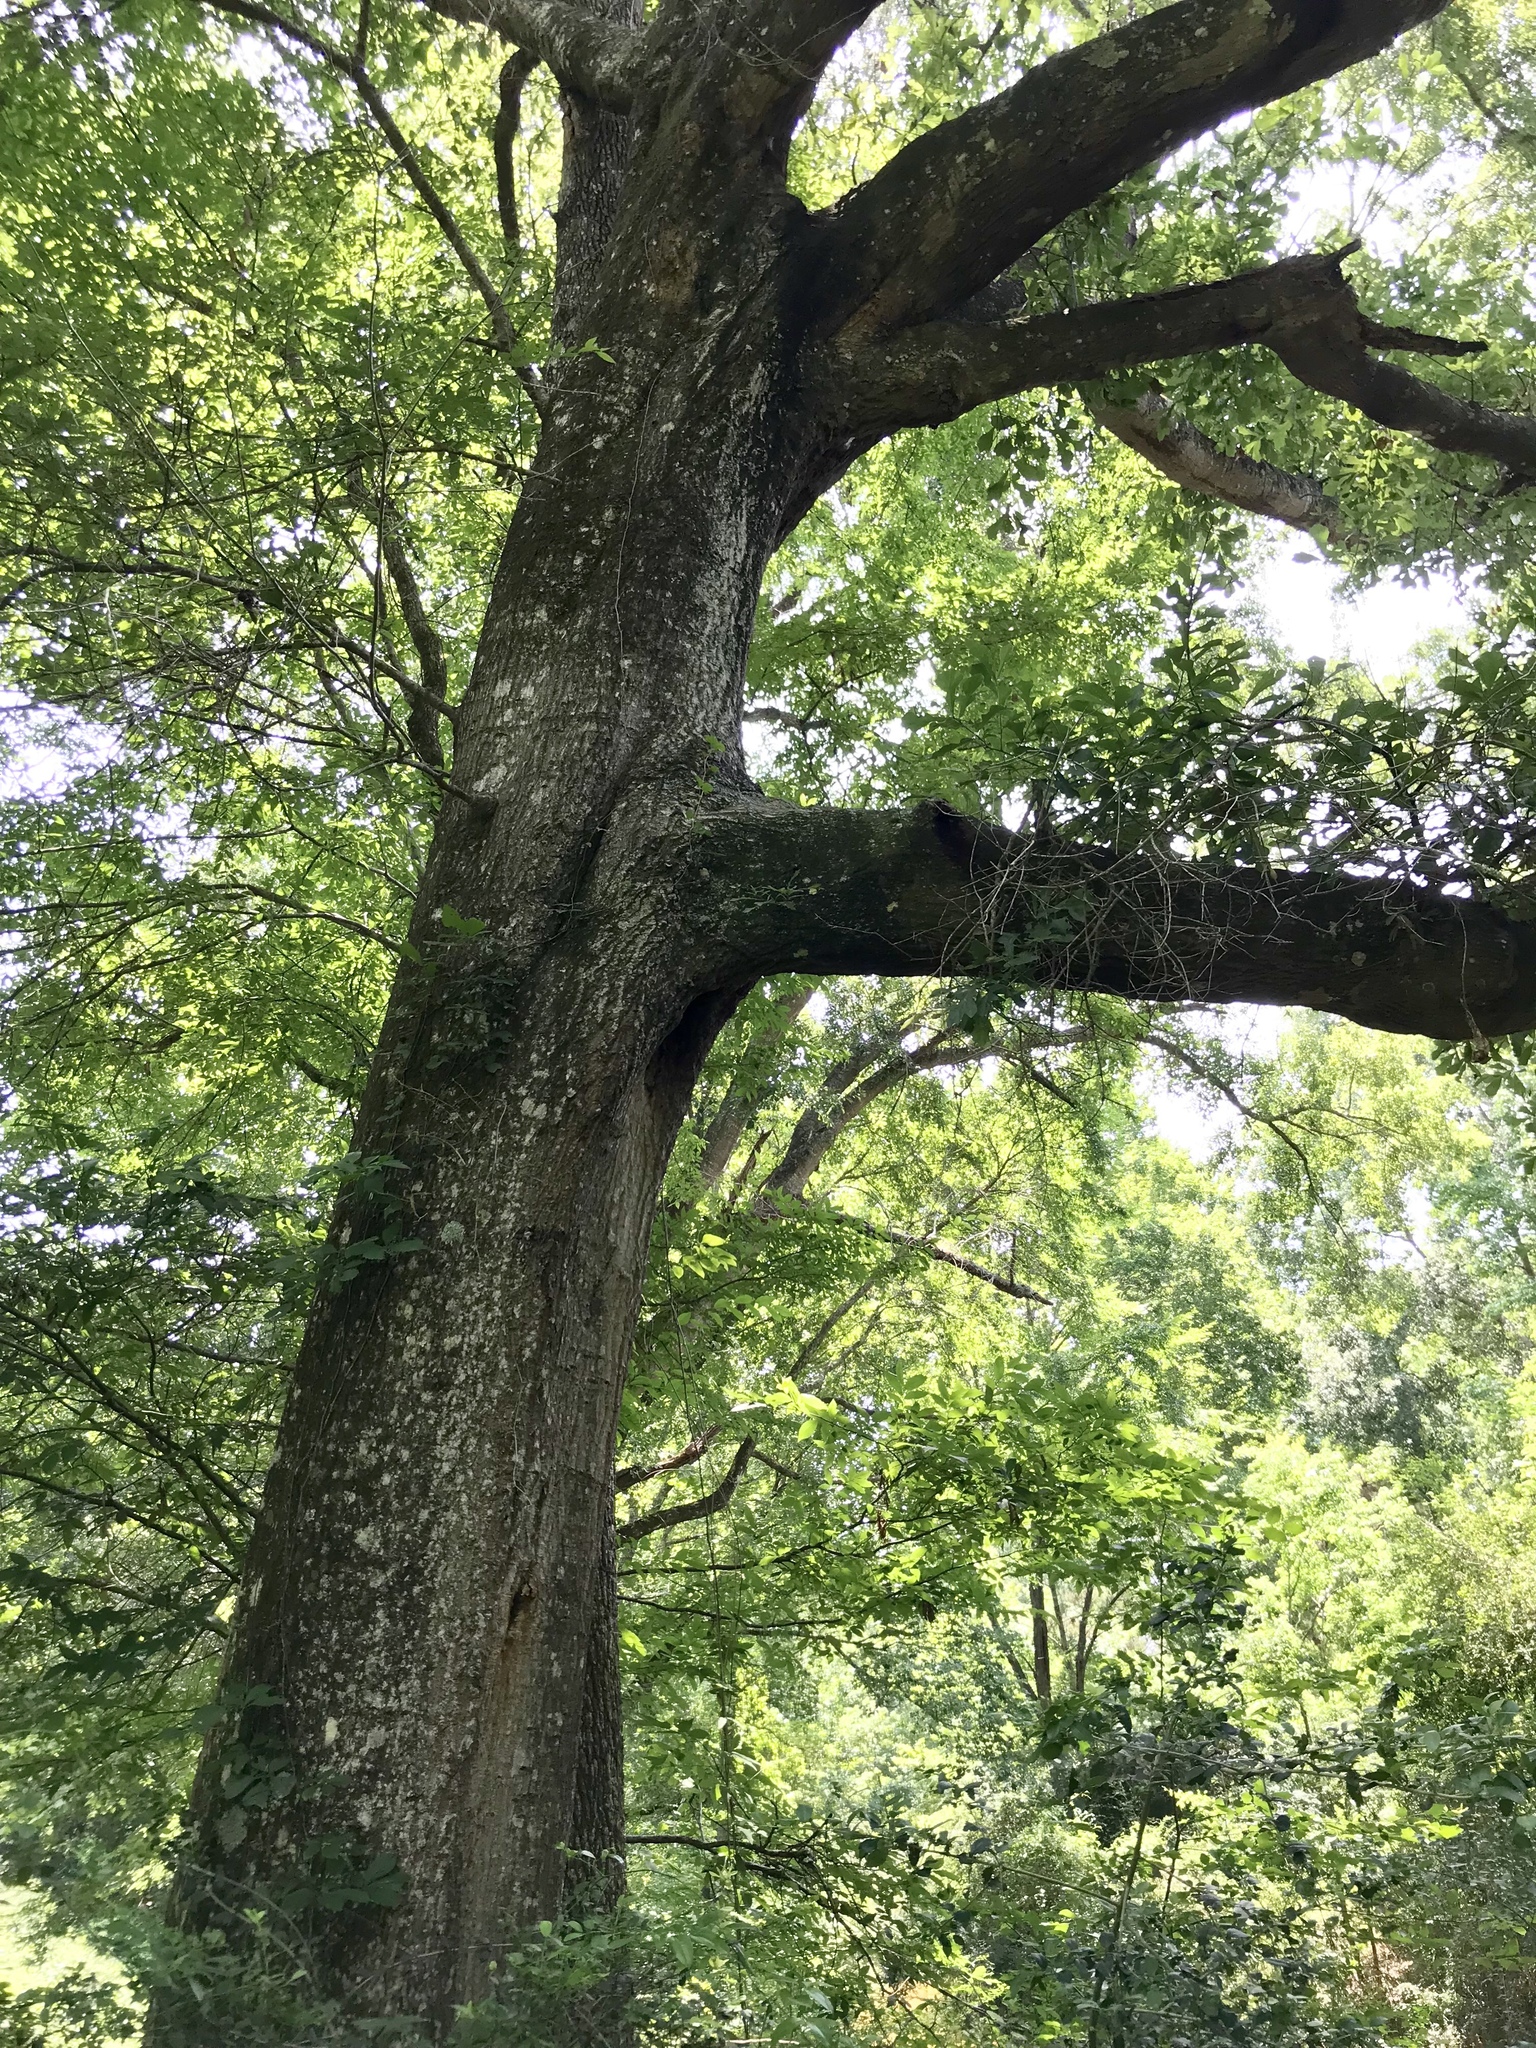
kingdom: Plantae
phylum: Tracheophyta
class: Magnoliopsida
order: Fagales
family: Fagaceae
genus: Quercus
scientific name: Quercus nigra
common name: Water oak
